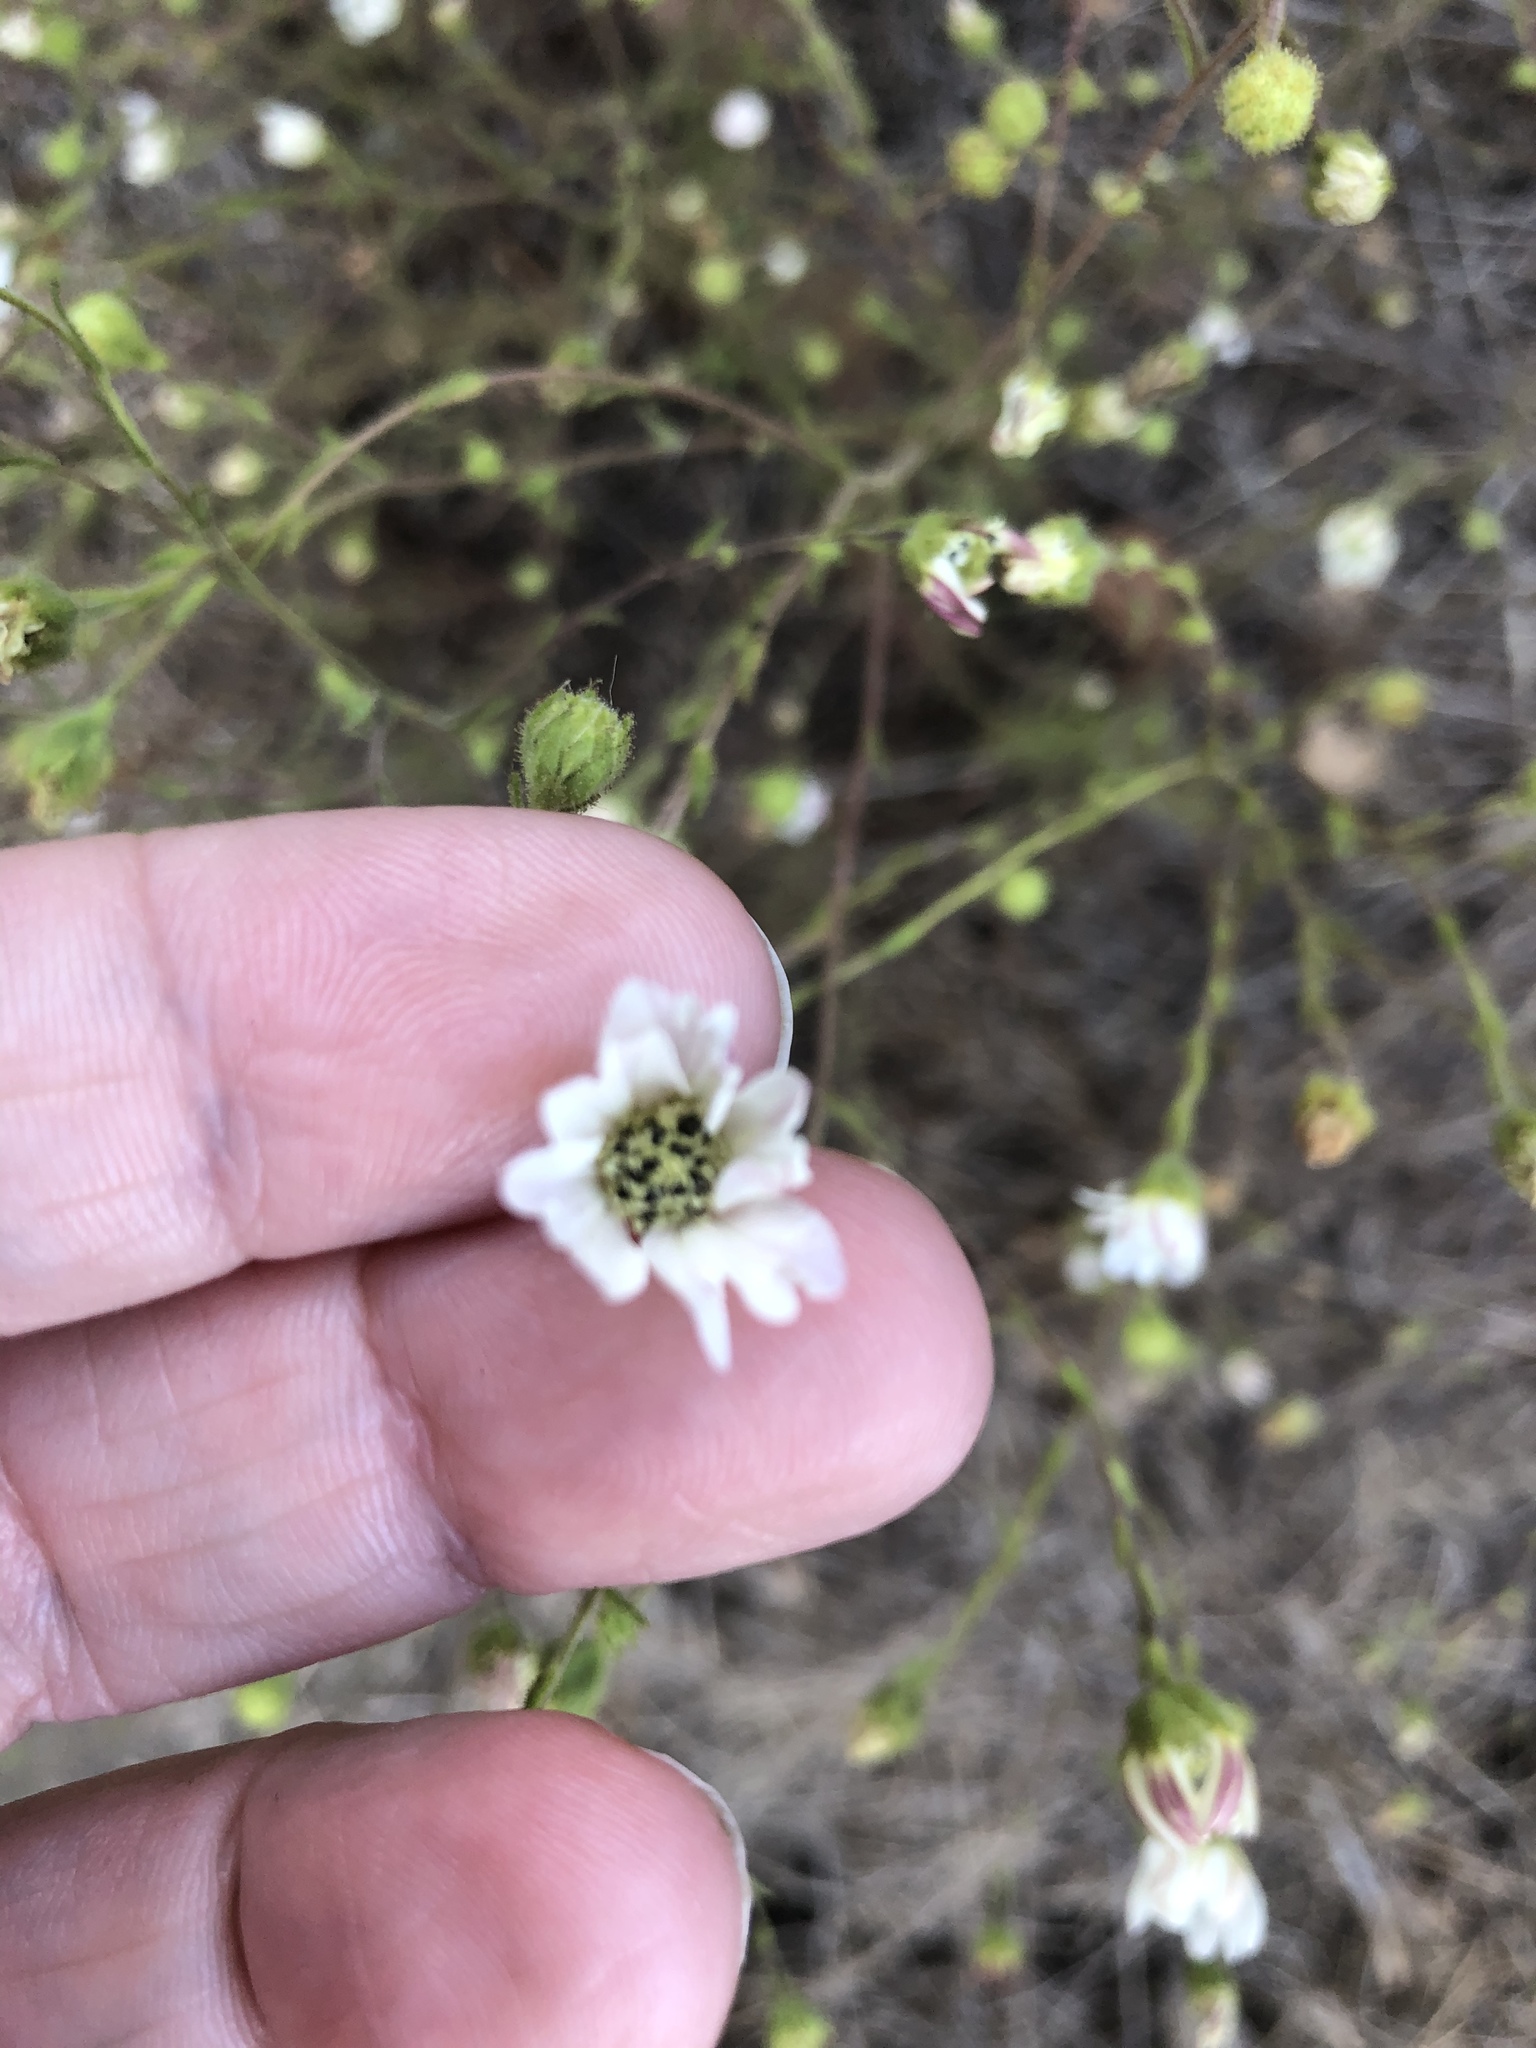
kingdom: Plantae
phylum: Tracheophyta
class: Magnoliopsida
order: Asterales
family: Asteraceae
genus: Hemizonia
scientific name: Hemizonia congesta
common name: Hayfield tarweed
